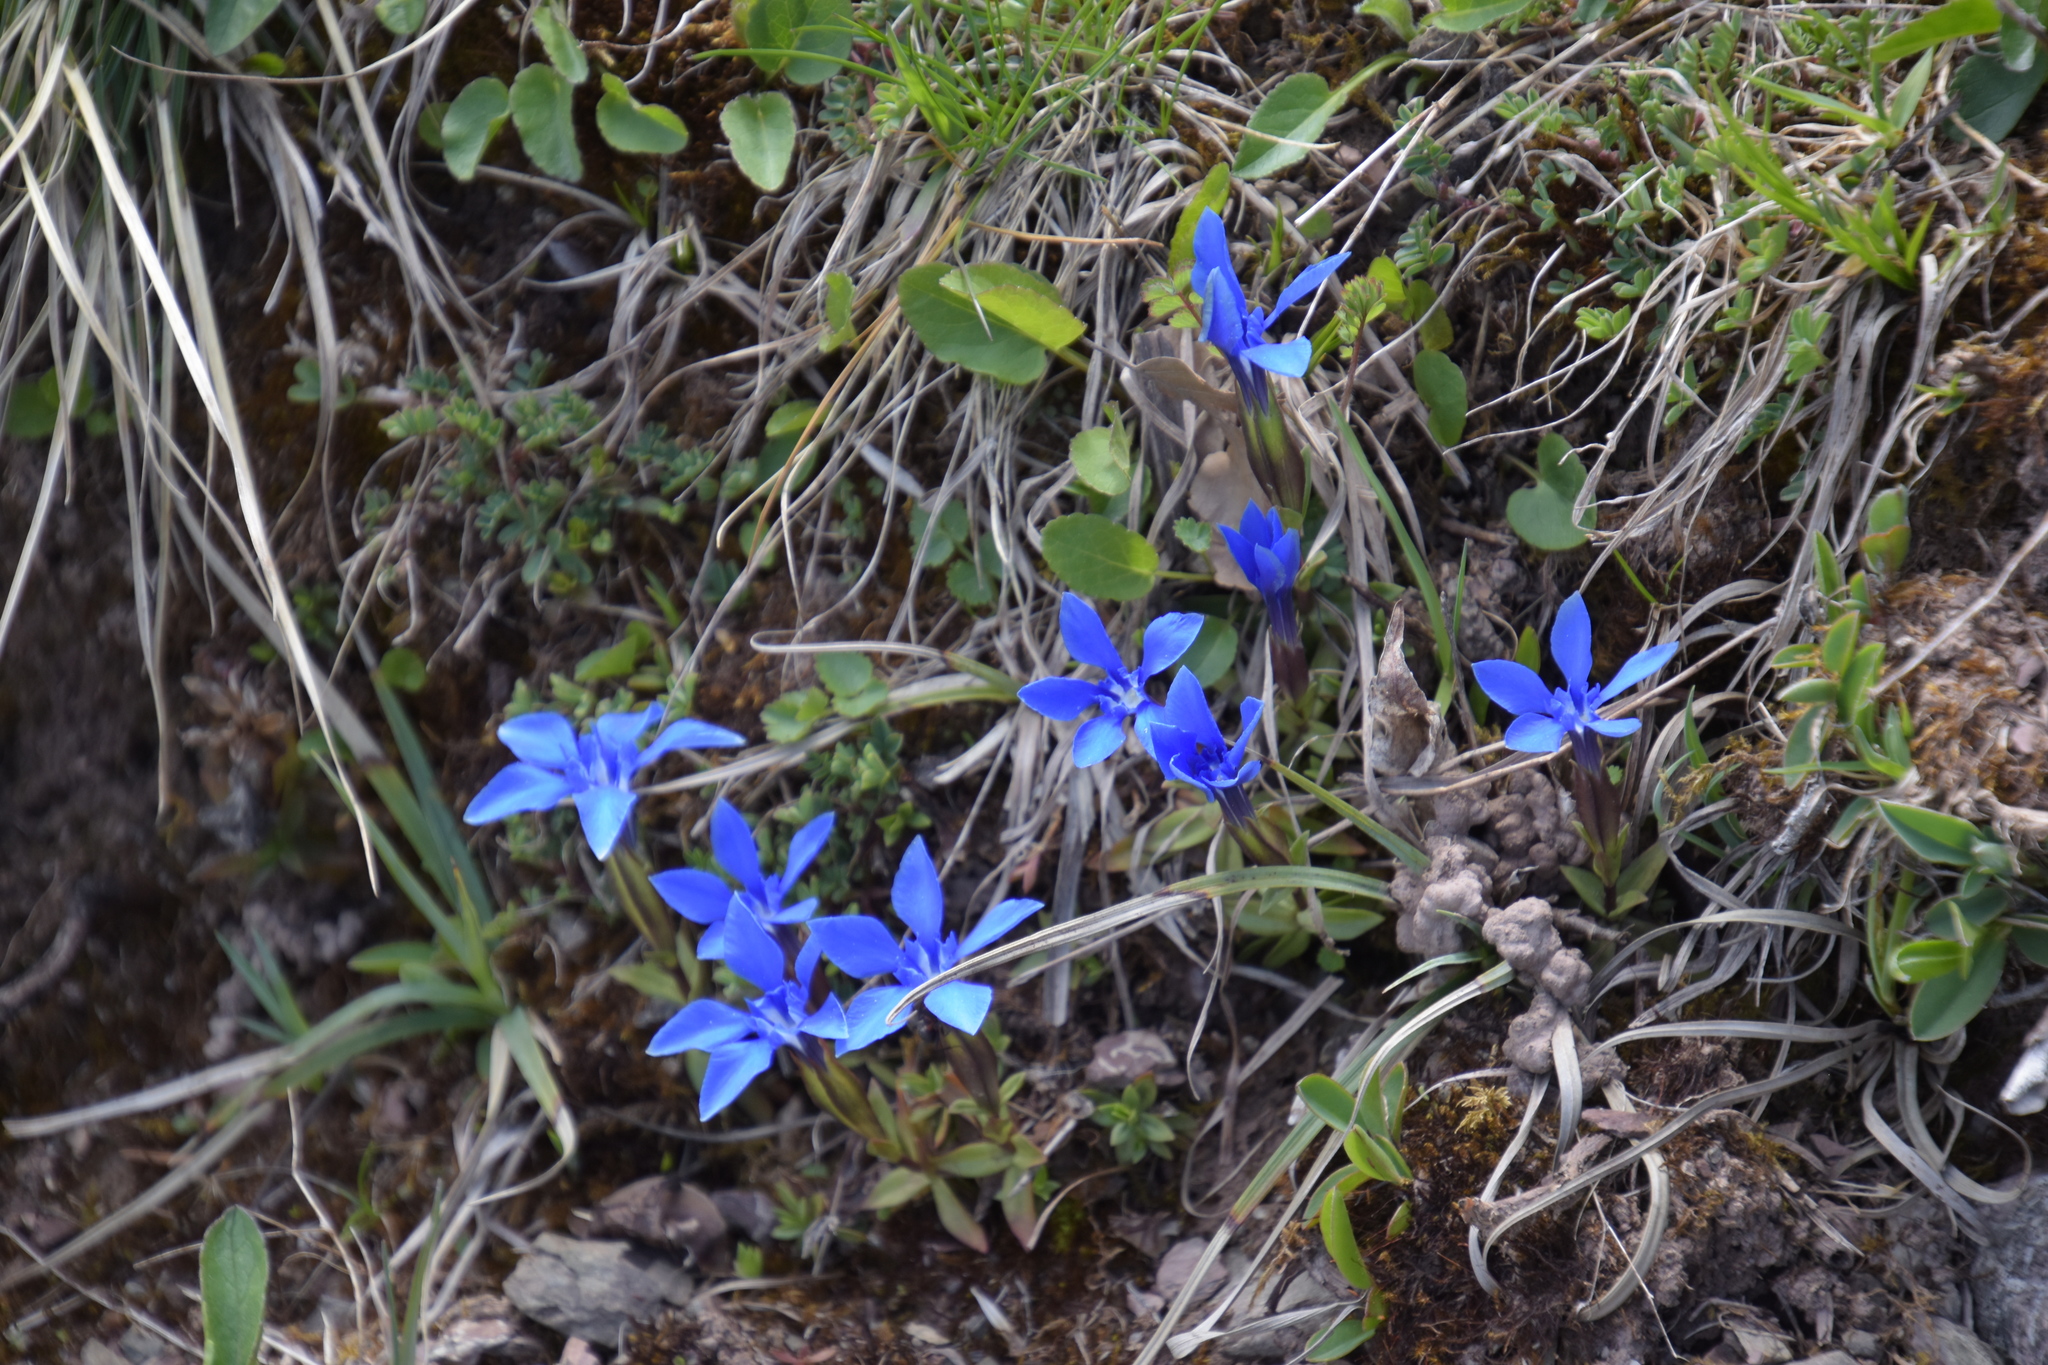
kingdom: Plantae
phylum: Tracheophyta
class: Magnoliopsida
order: Gentianales
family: Gentianaceae
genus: Gentiana
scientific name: Gentiana verna
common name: Spring gentian
